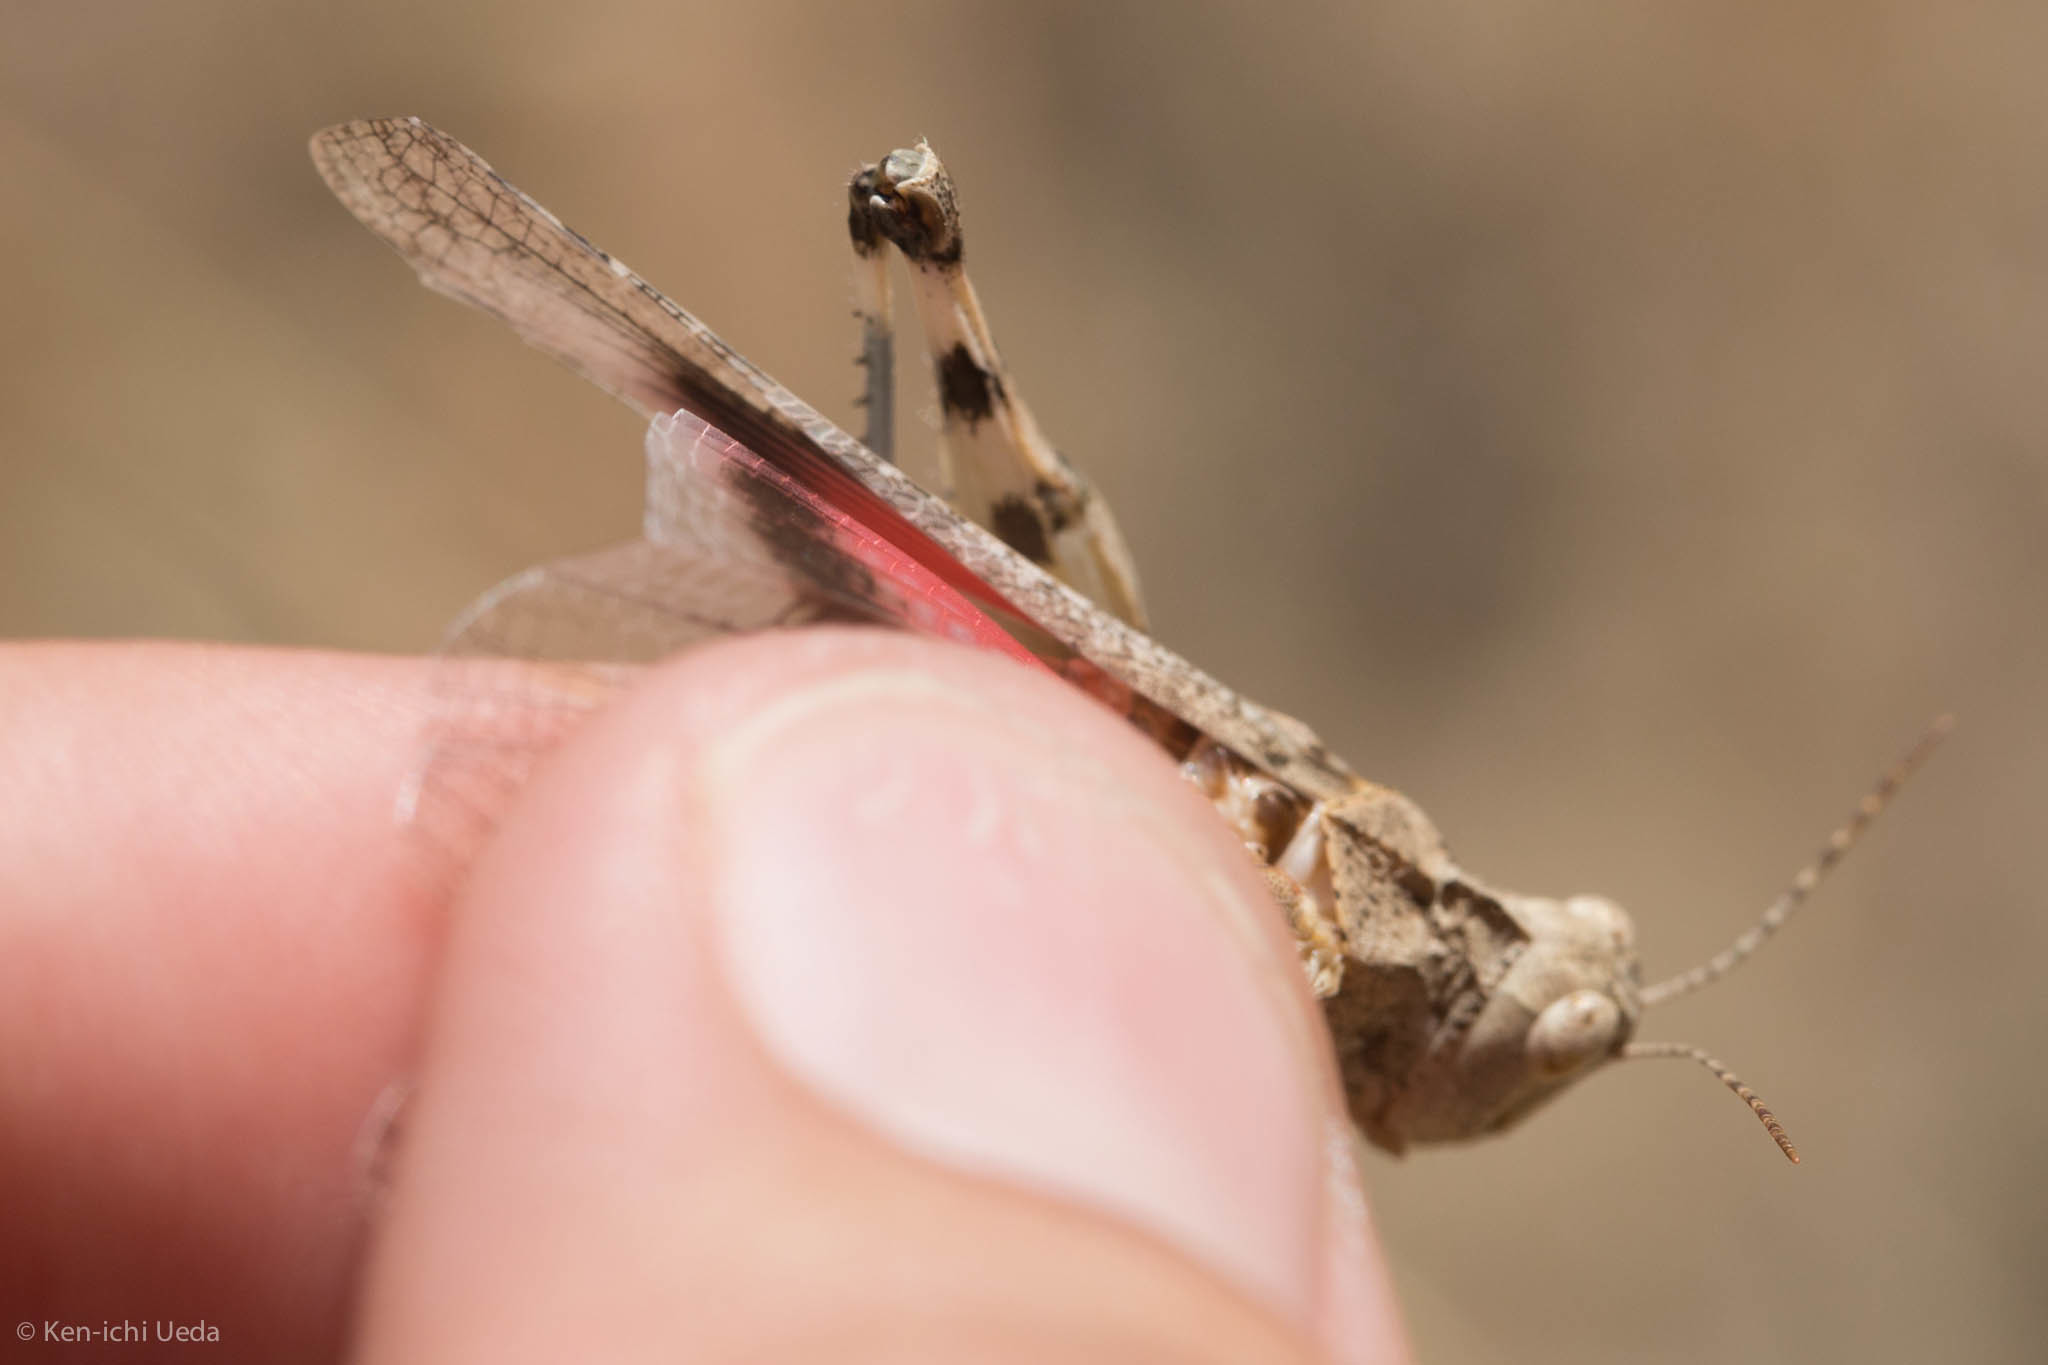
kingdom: Animalia
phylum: Arthropoda
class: Insecta
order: Orthoptera
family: Acrididae
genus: Dissosteira
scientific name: Dissosteira pictipennis
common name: California rose-winged grasshopper
